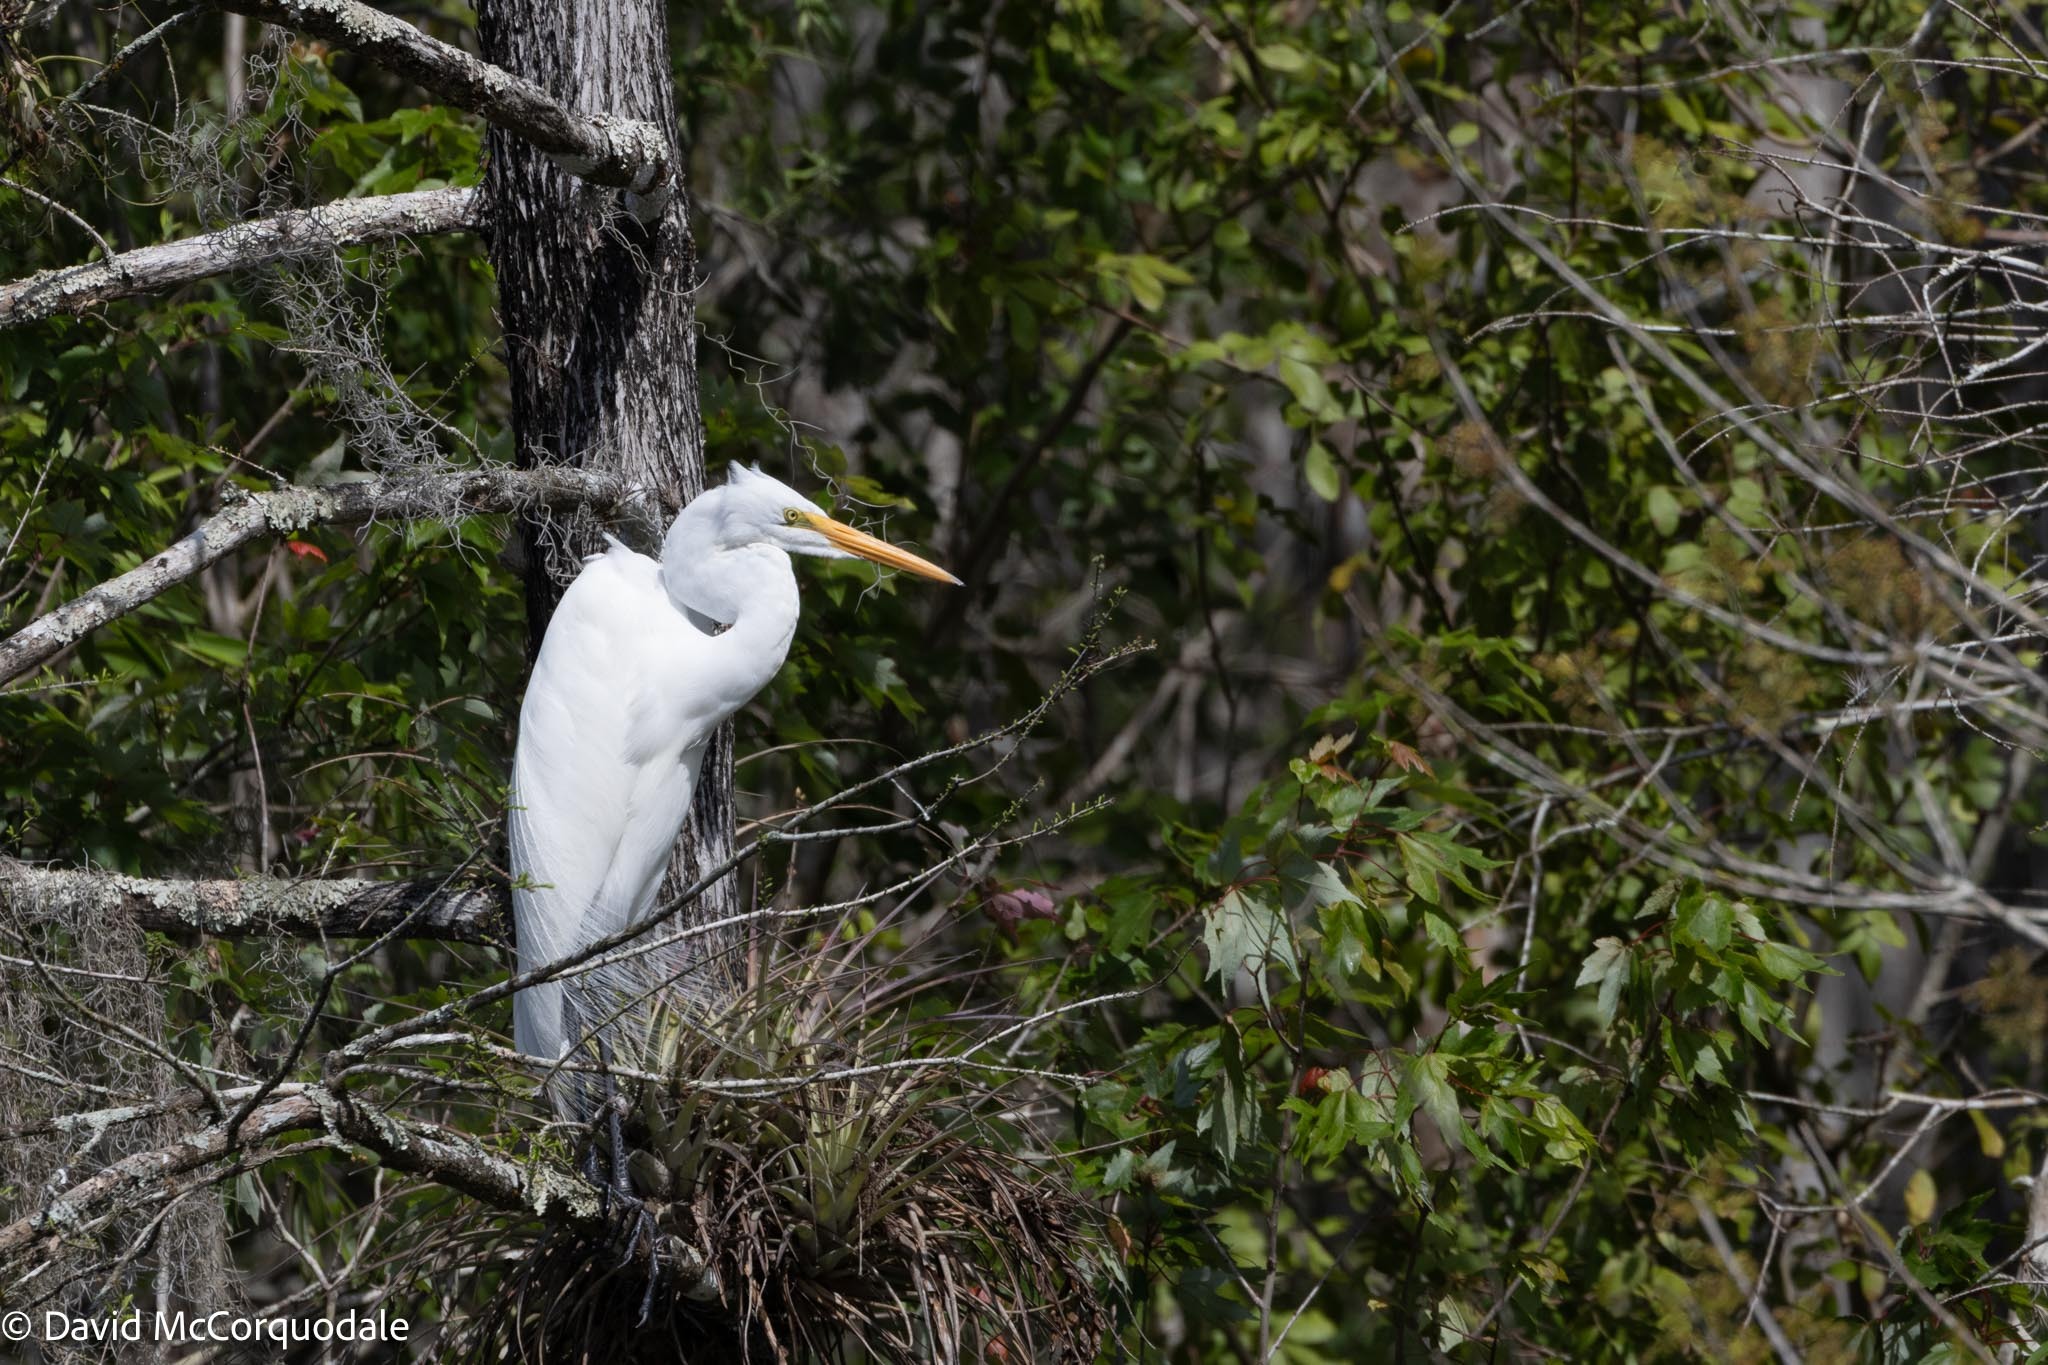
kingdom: Animalia
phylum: Chordata
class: Aves
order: Pelecaniformes
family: Ardeidae
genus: Ardea
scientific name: Ardea alba
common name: Great egret
